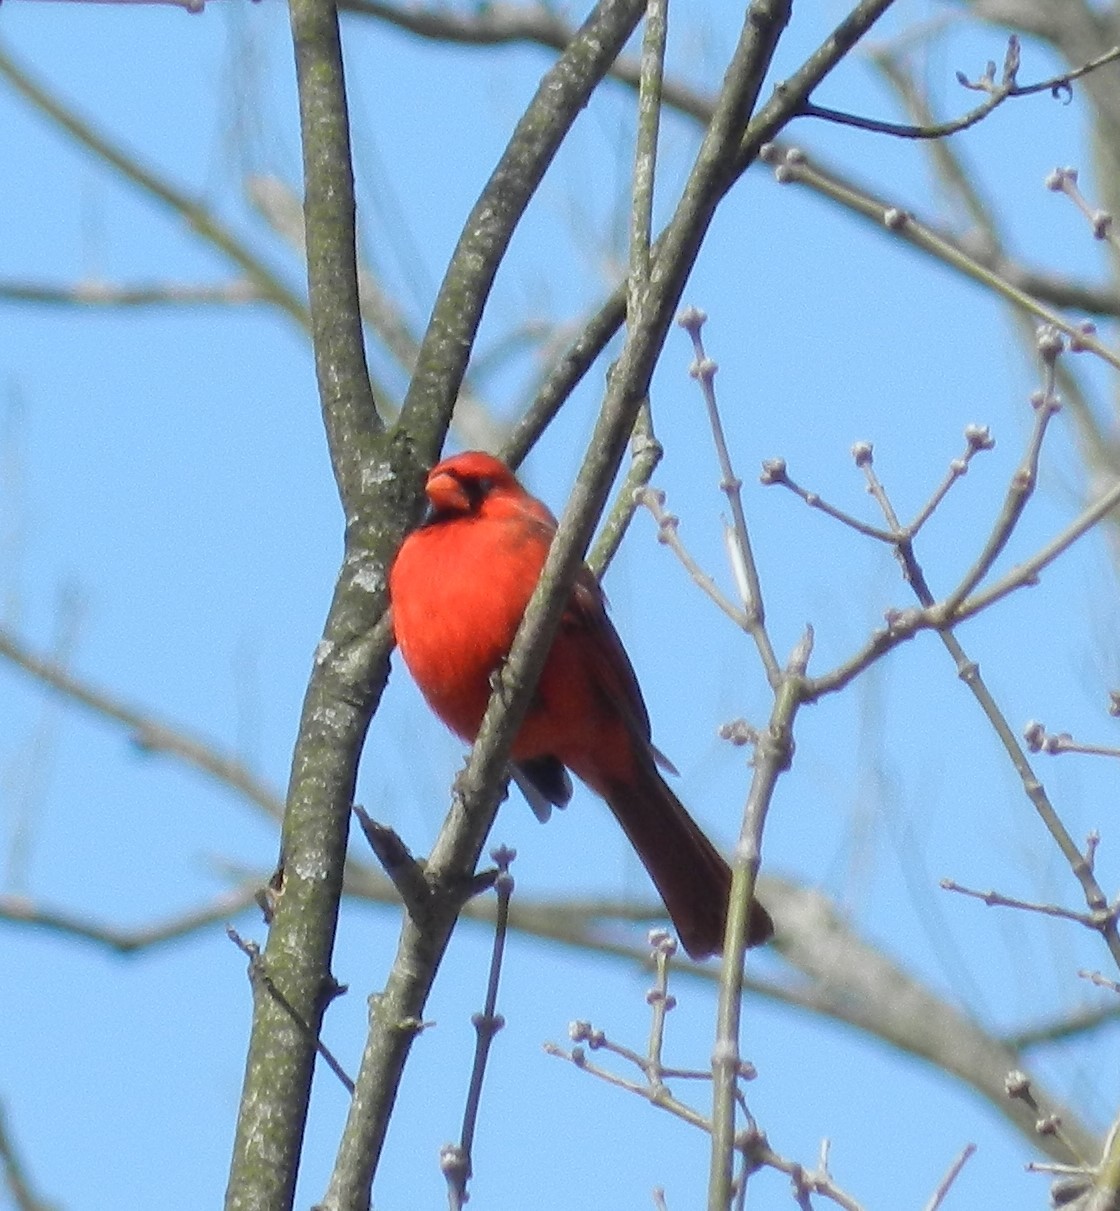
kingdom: Animalia
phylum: Chordata
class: Aves
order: Passeriformes
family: Cardinalidae
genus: Cardinalis
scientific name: Cardinalis cardinalis
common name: Northern cardinal
